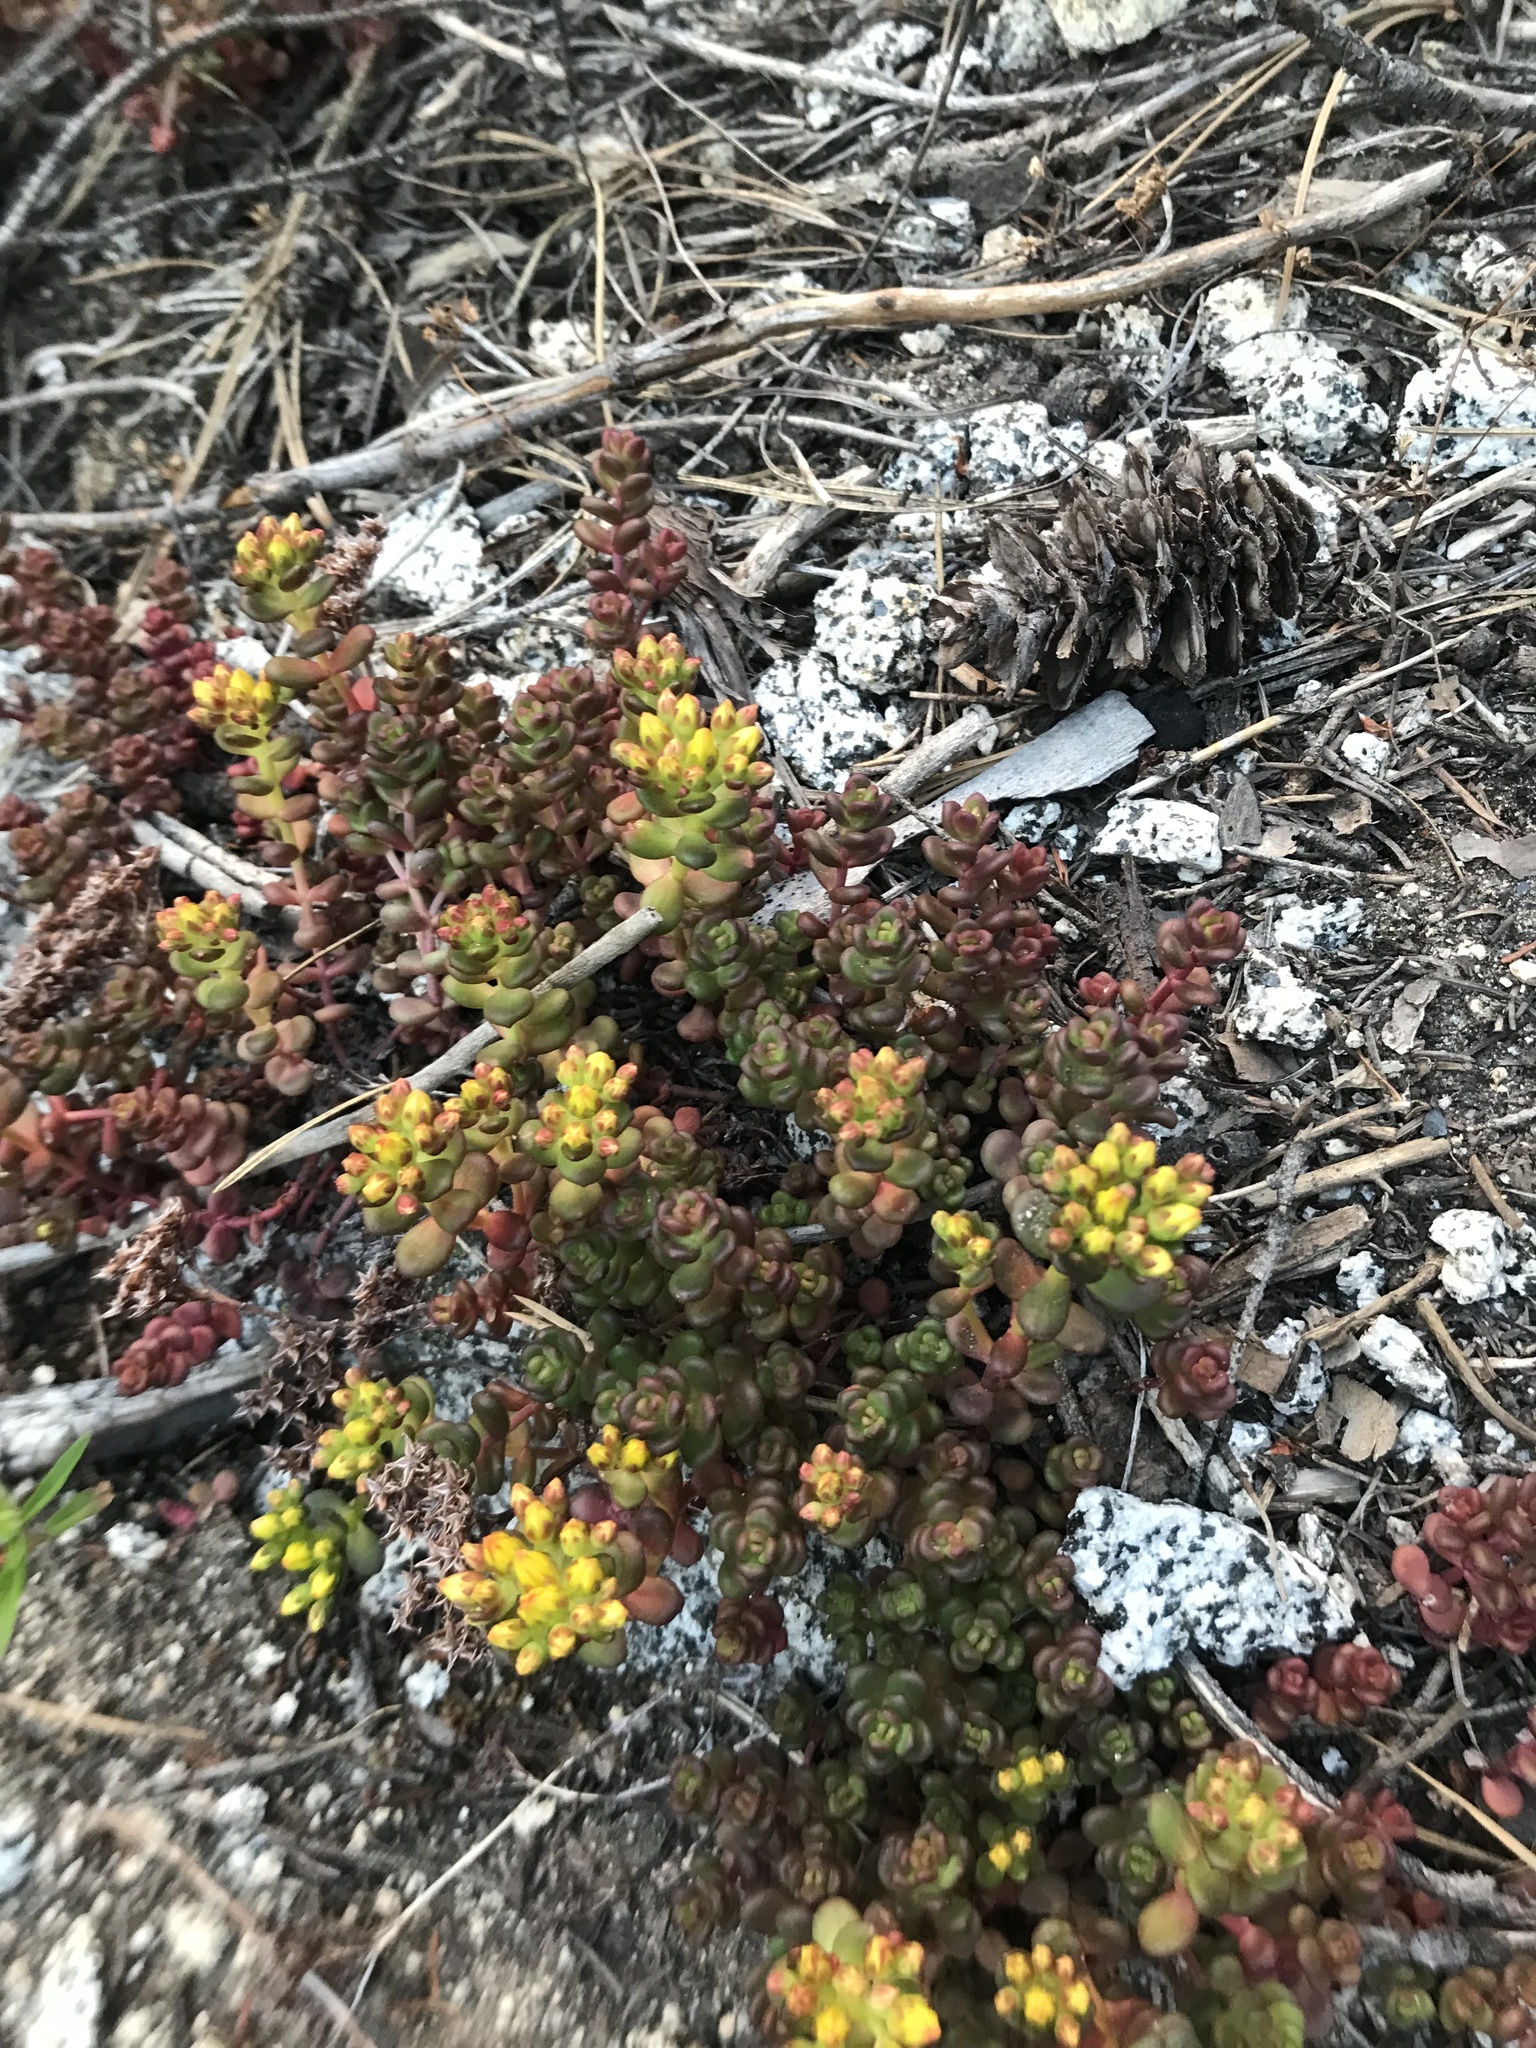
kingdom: Plantae
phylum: Tracheophyta
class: Magnoliopsida
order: Saxifragales
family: Crassulaceae
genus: Sedum
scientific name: Sedum divergens
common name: Cascade stonecrop
